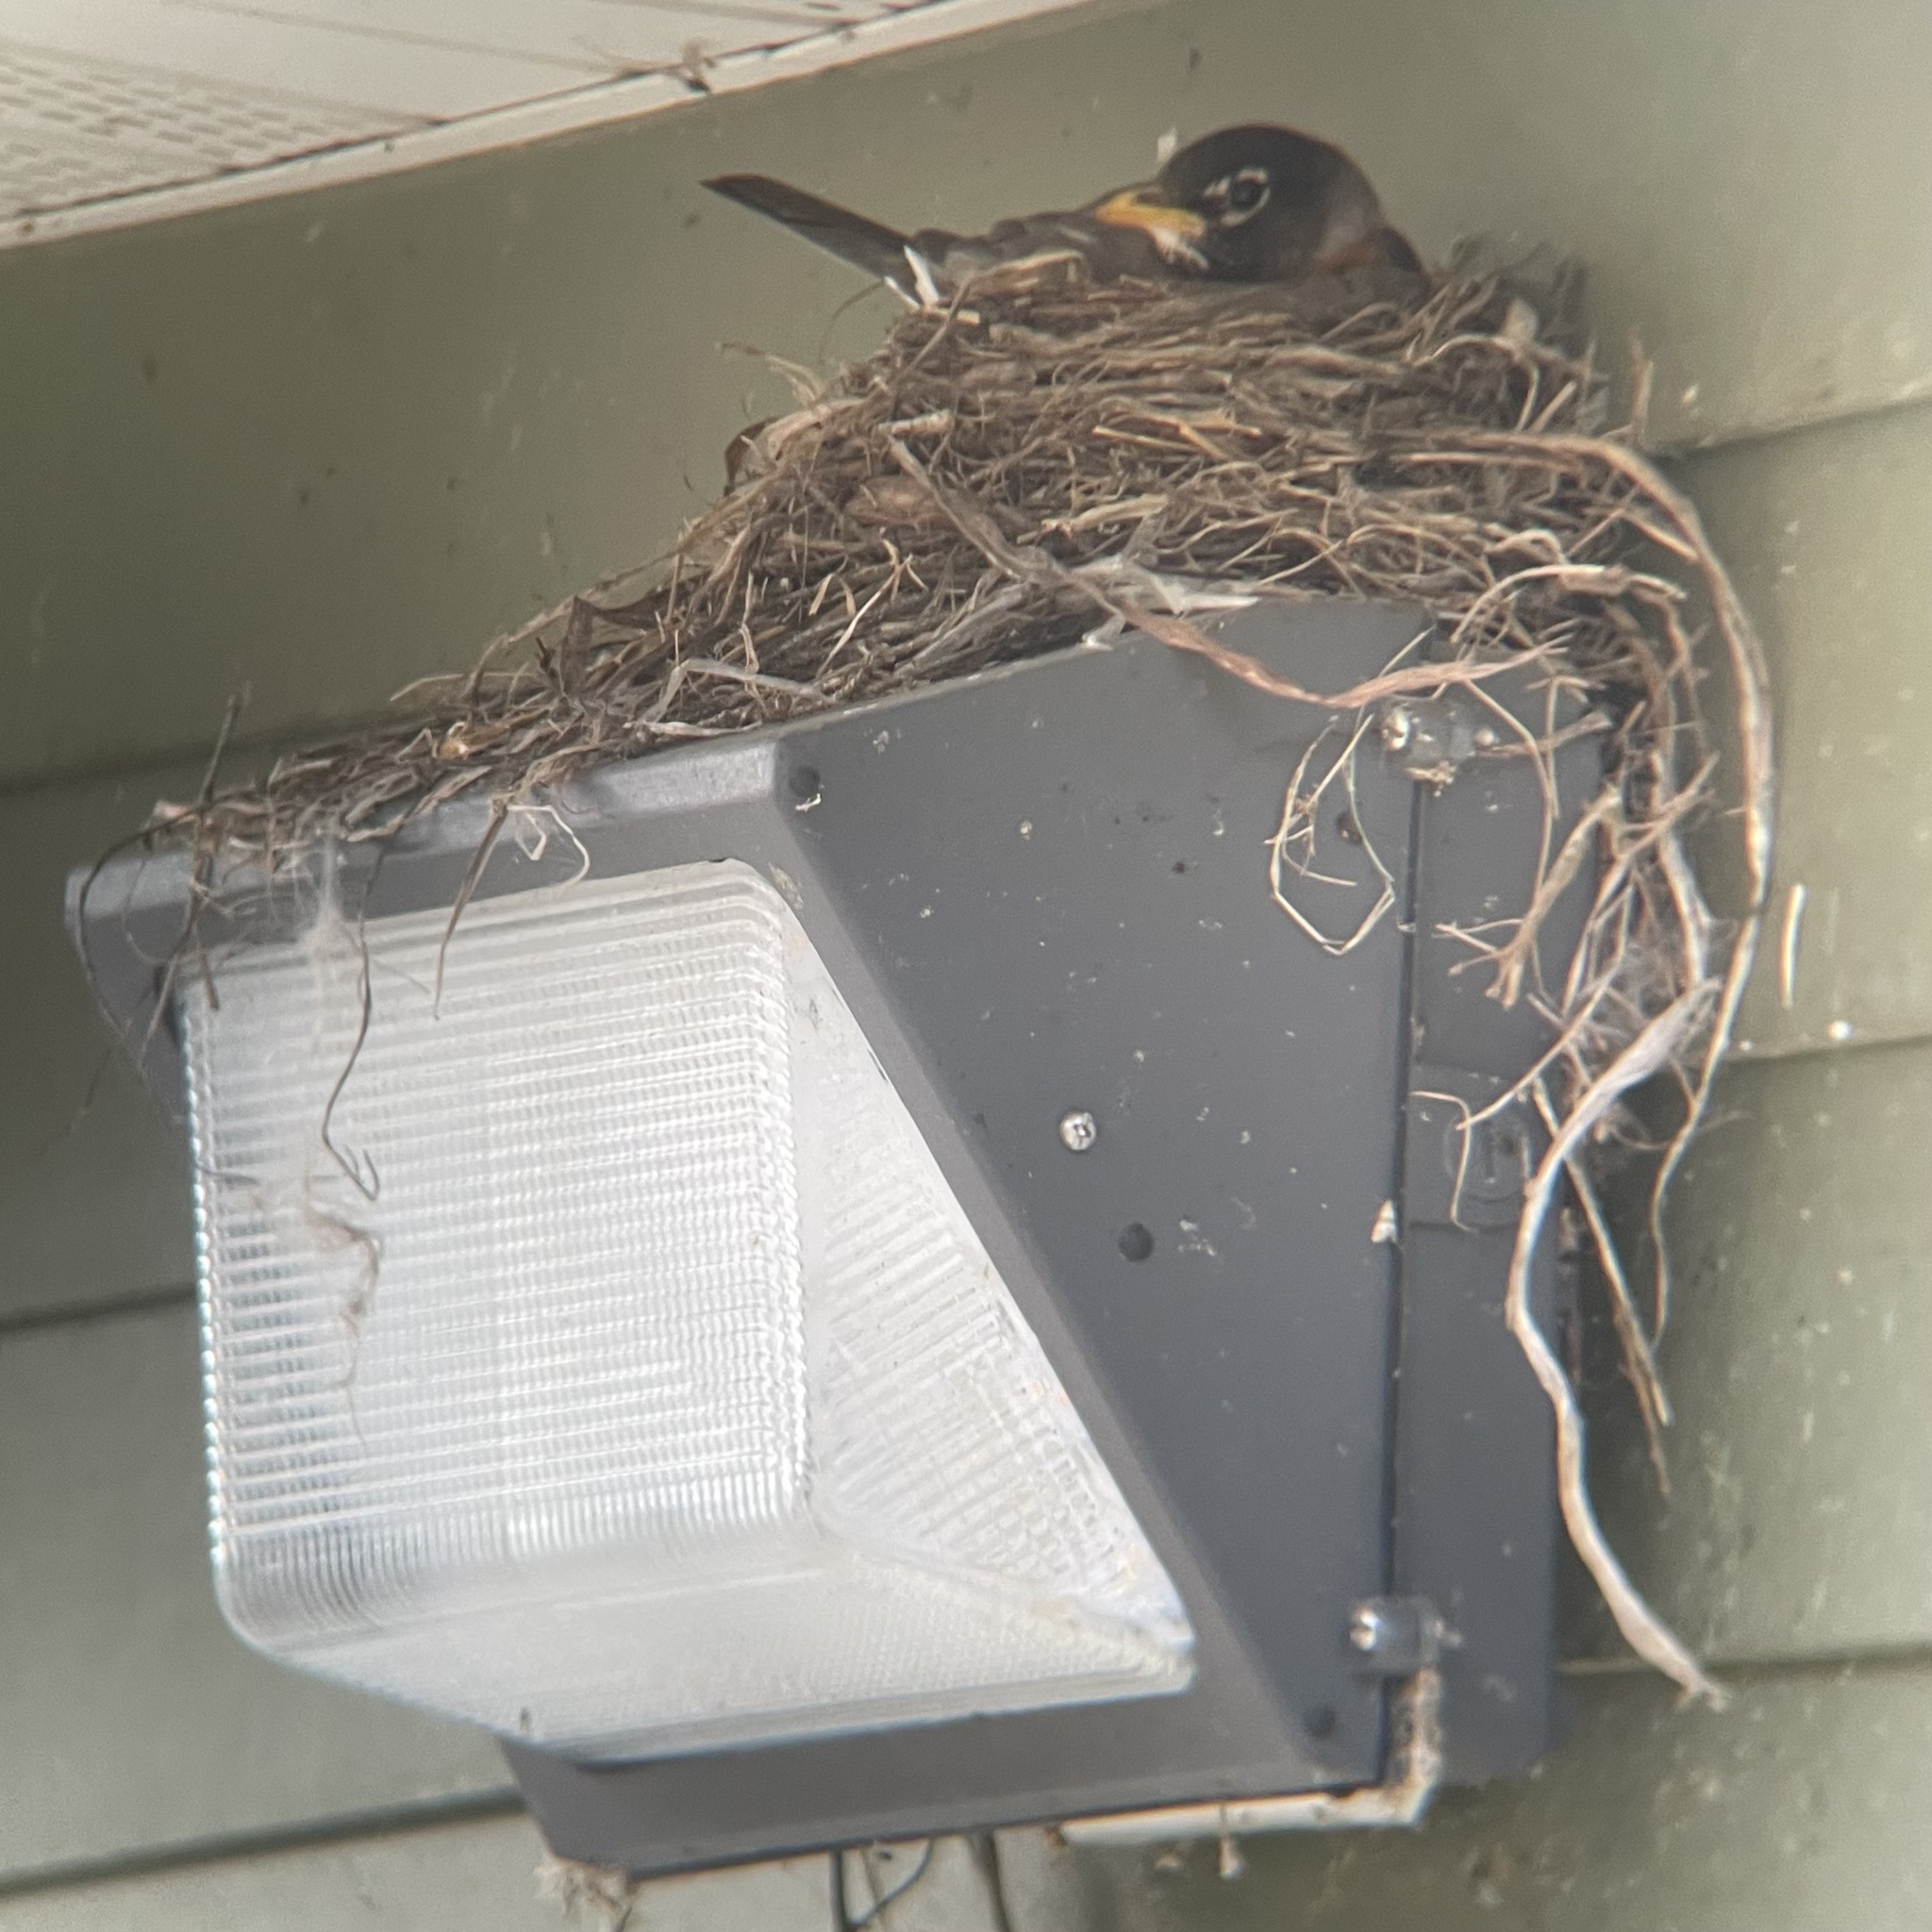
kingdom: Animalia
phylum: Chordata
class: Aves
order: Passeriformes
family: Turdidae
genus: Turdus
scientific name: Turdus migratorius
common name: American robin
